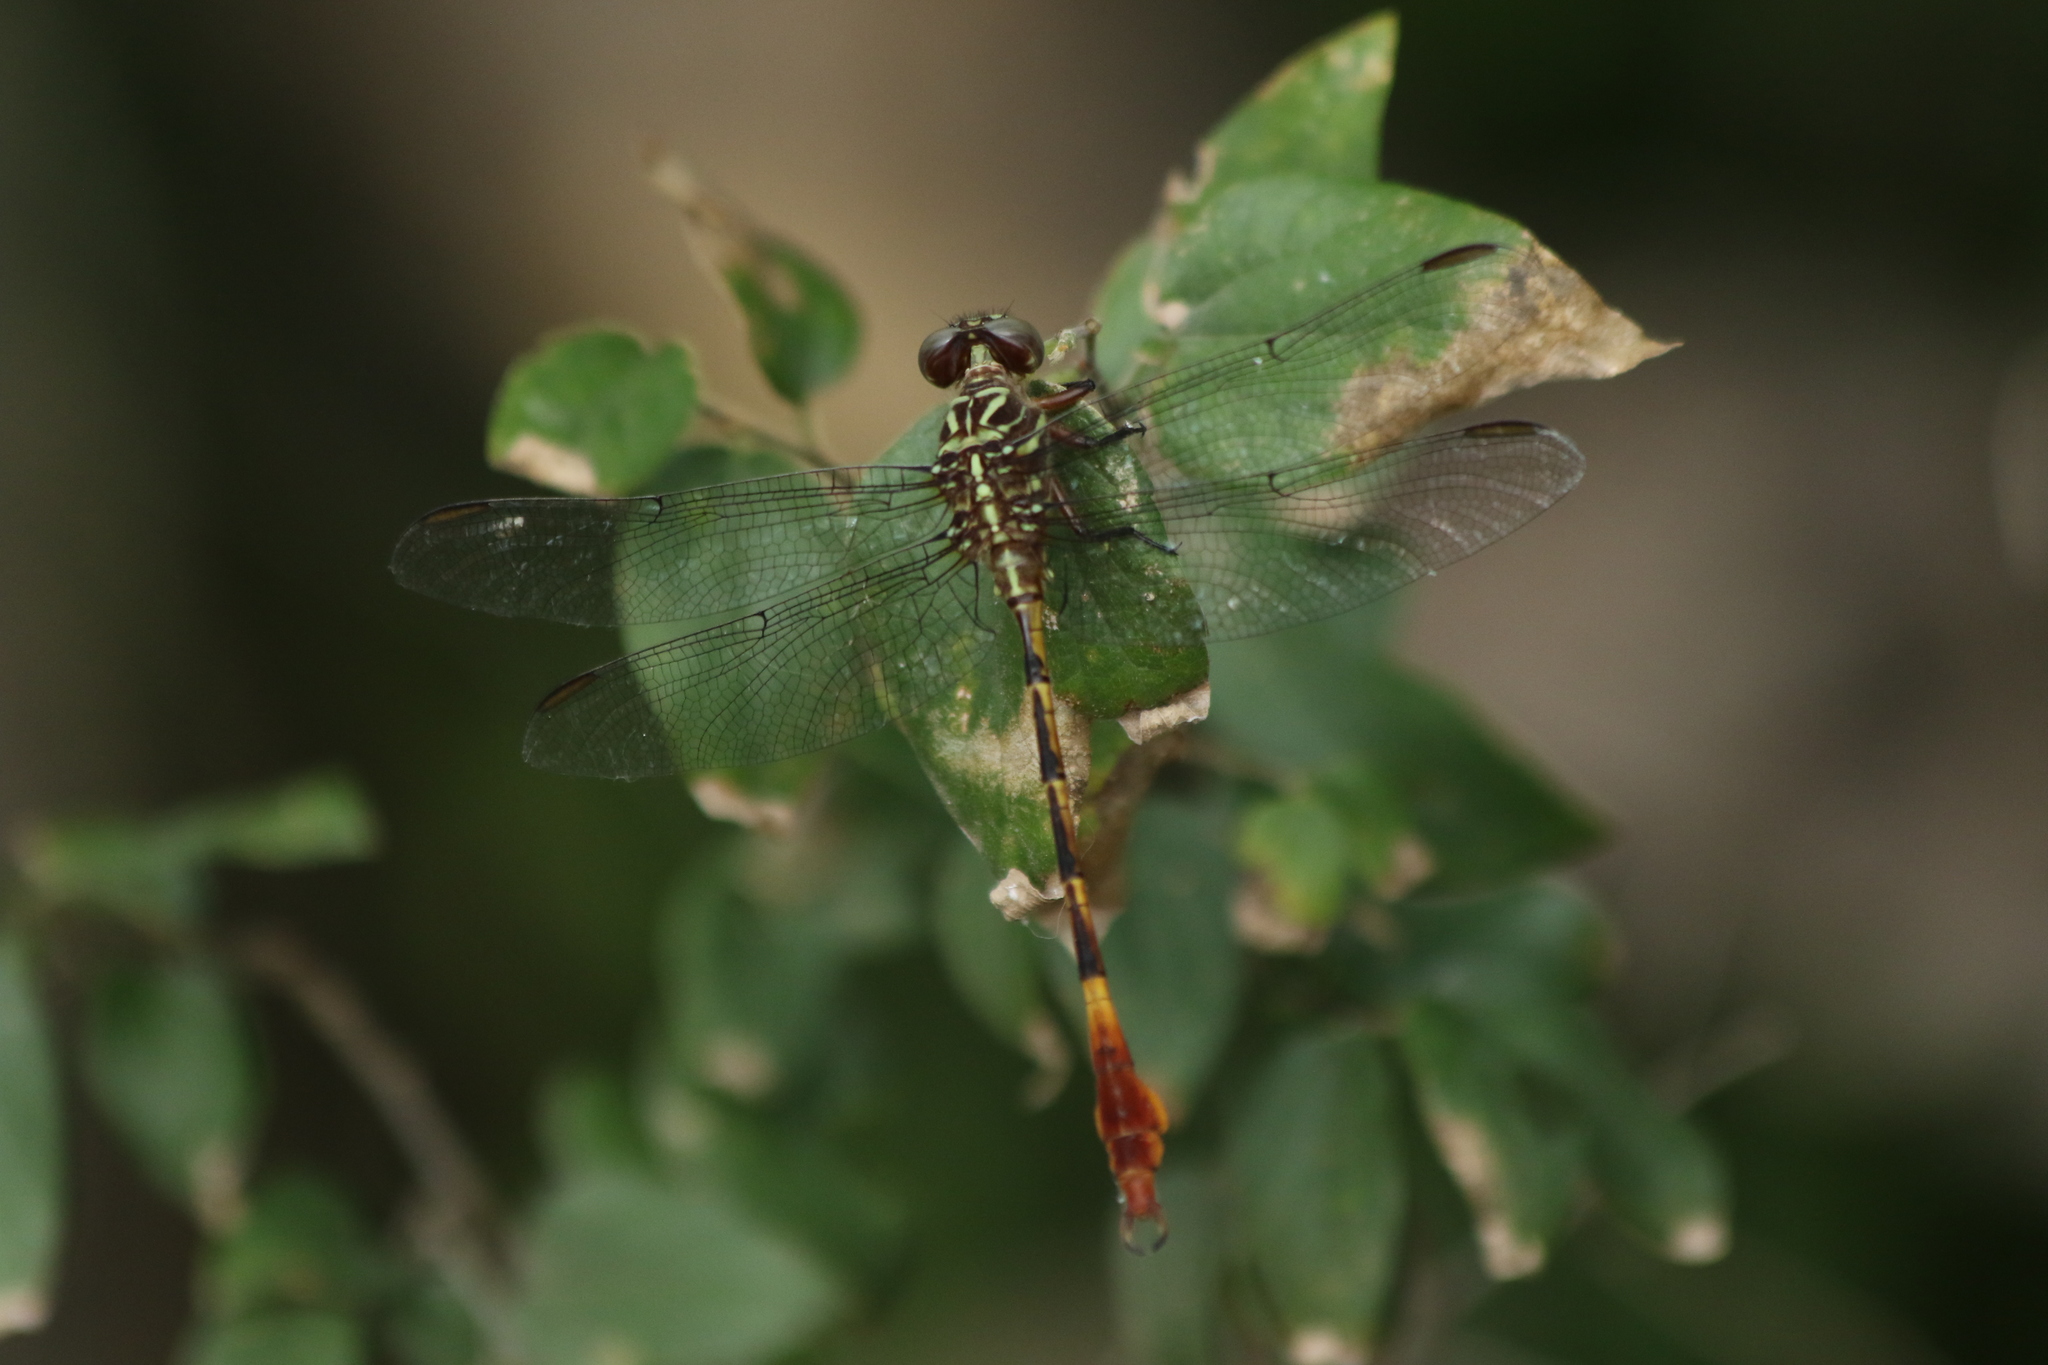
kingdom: Animalia
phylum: Arthropoda
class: Insecta
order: Odonata
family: Gomphidae
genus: Aphylla
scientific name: Aphylla angustifolia
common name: Broad-striped forceptail
